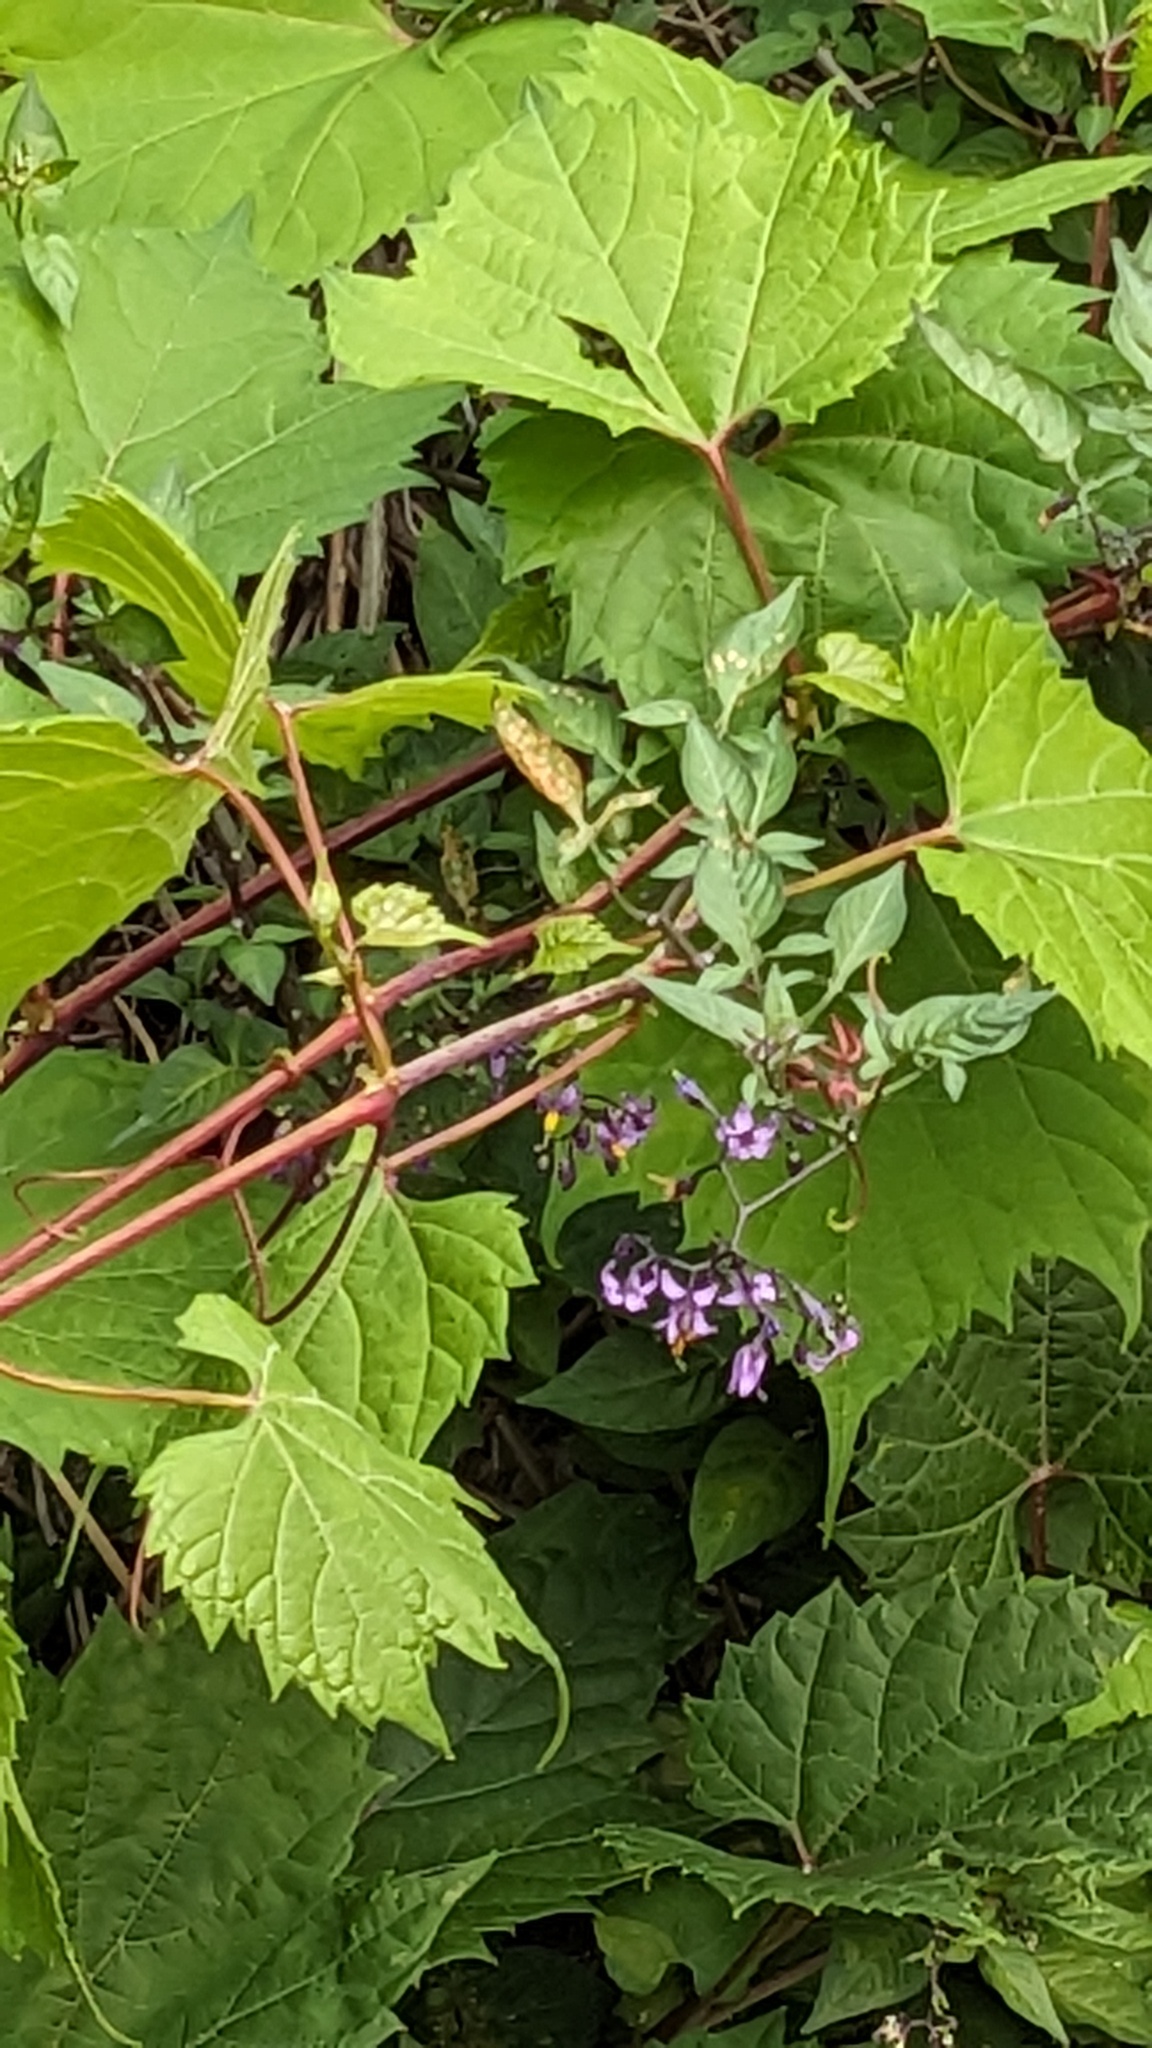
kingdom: Plantae
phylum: Tracheophyta
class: Magnoliopsida
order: Solanales
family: Solanaceae
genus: Solanum
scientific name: Solanum dulcamara
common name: Climbing nightshade
